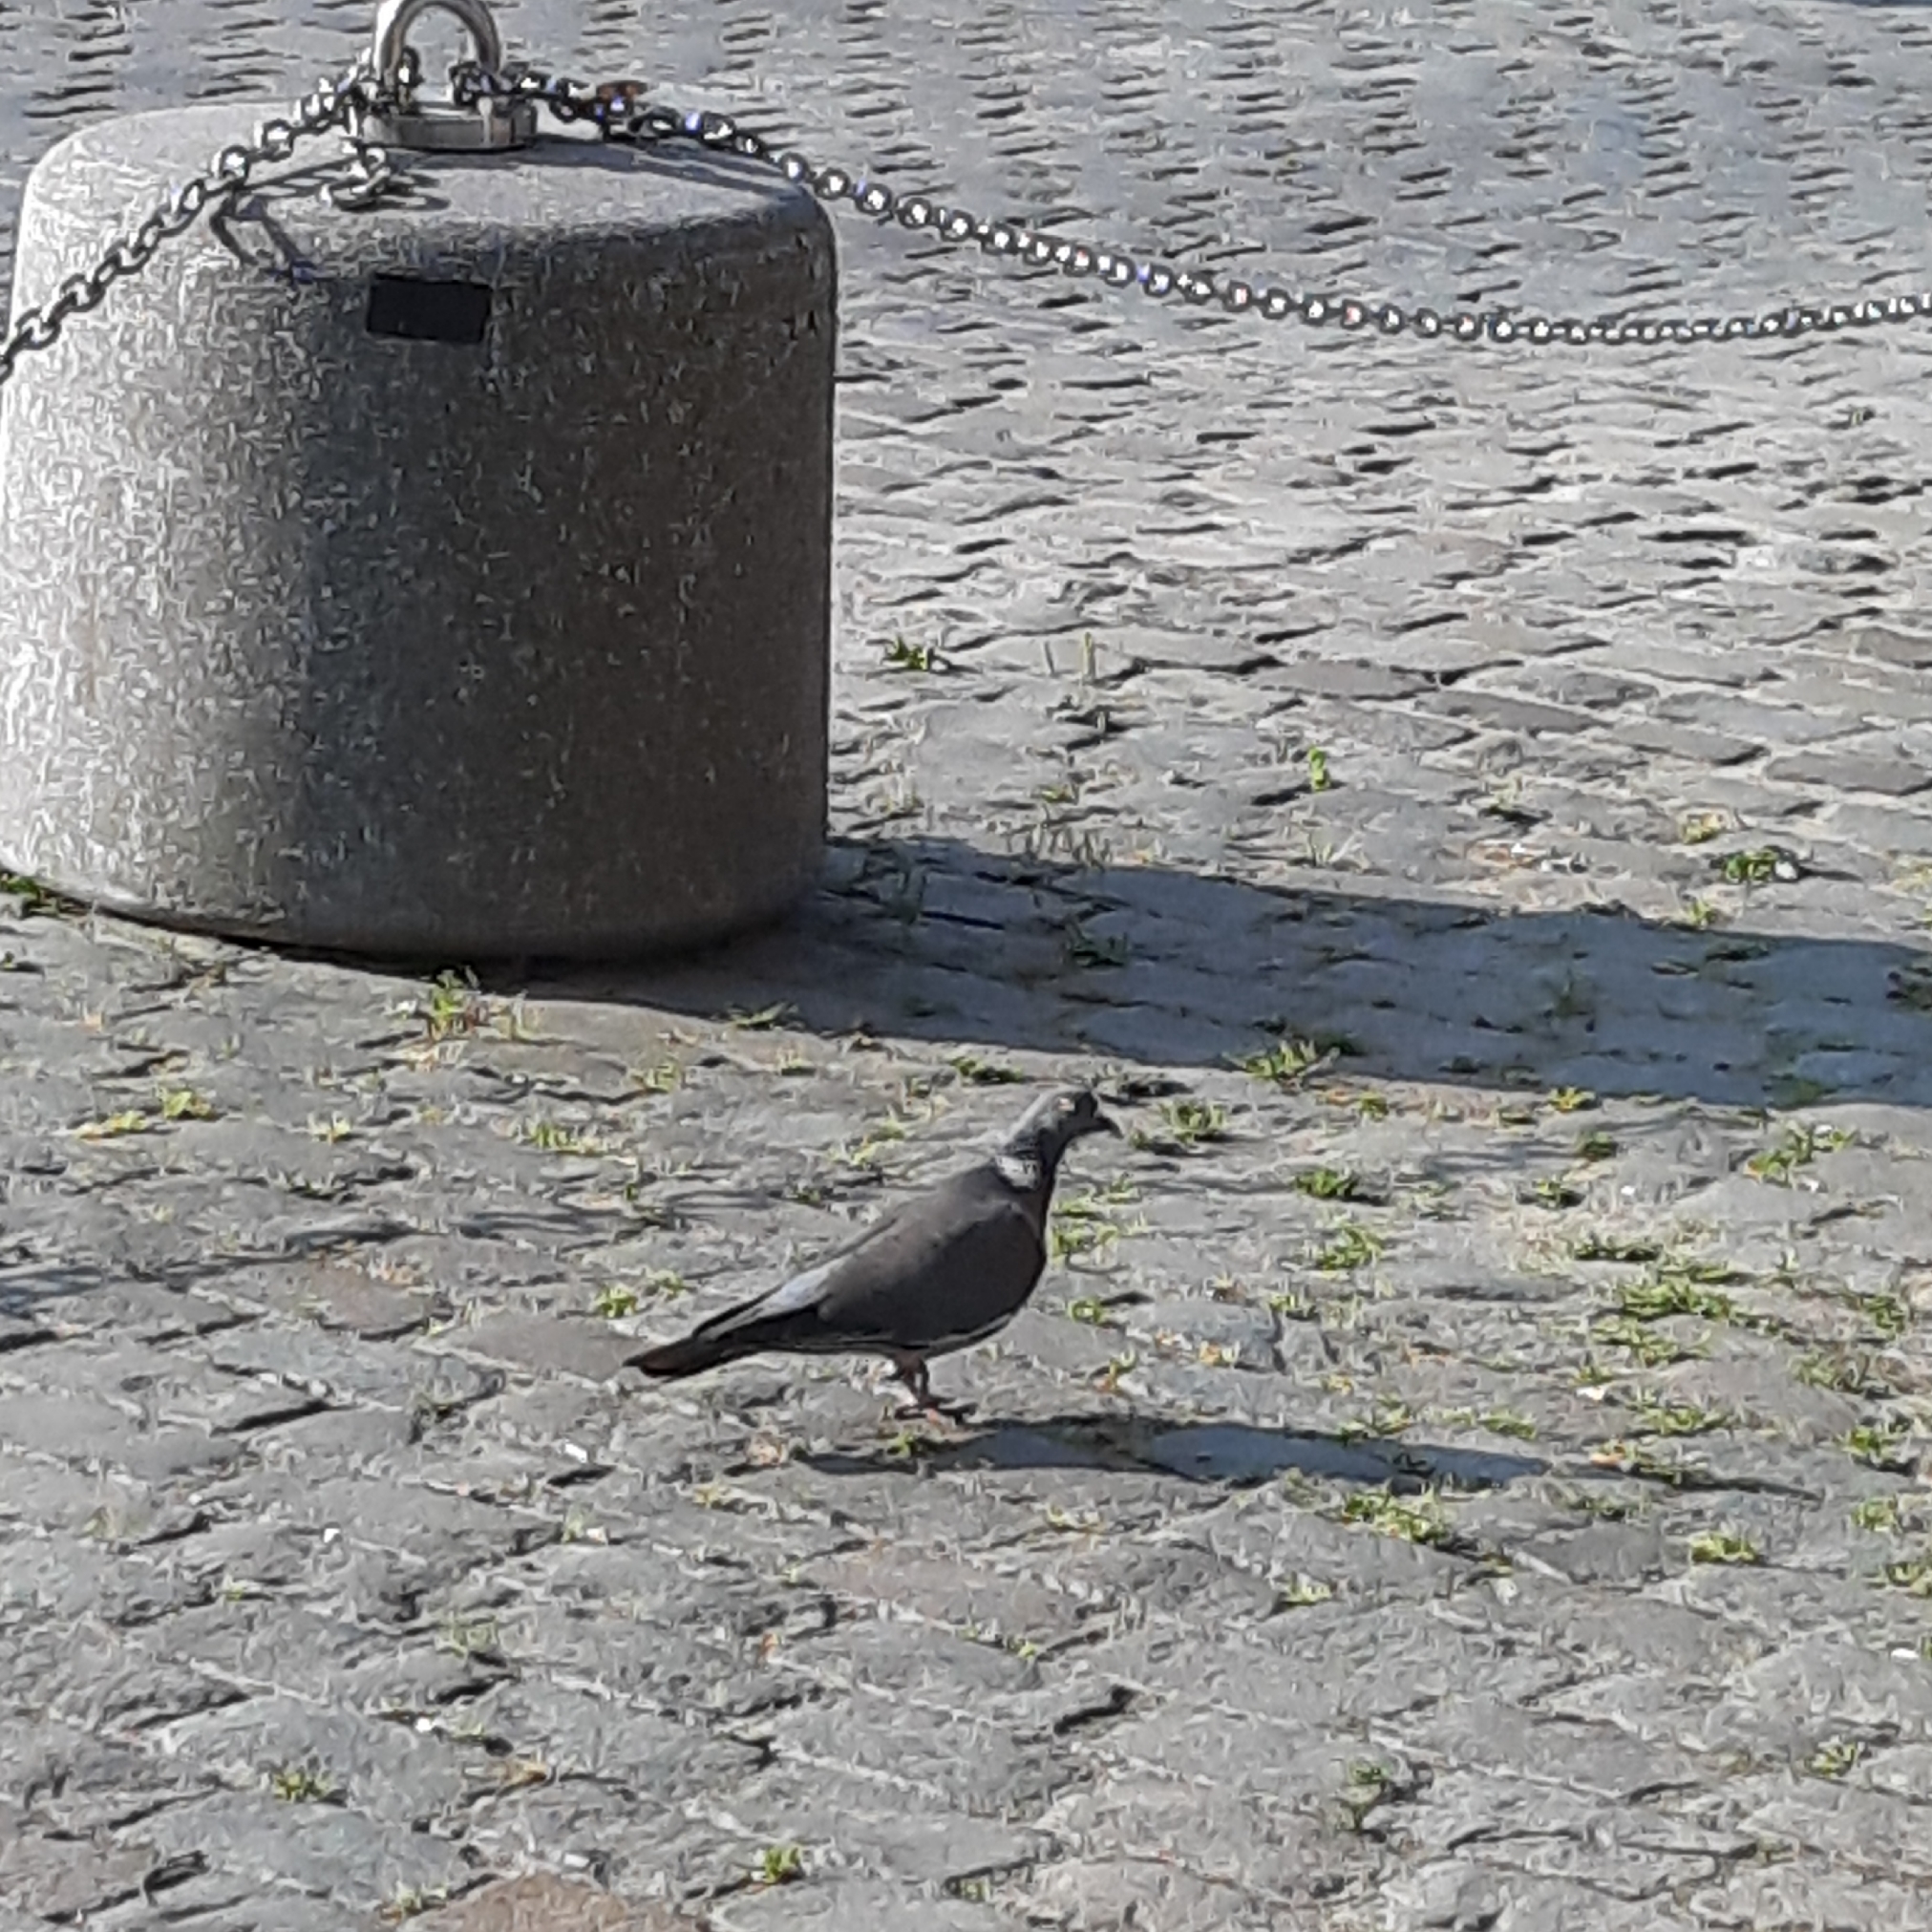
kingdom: Animalia
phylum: Chordata
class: Aves
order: Columbiformes
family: Columbidae
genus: Columba
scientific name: Columba palumbus
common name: Common wood pigeon
